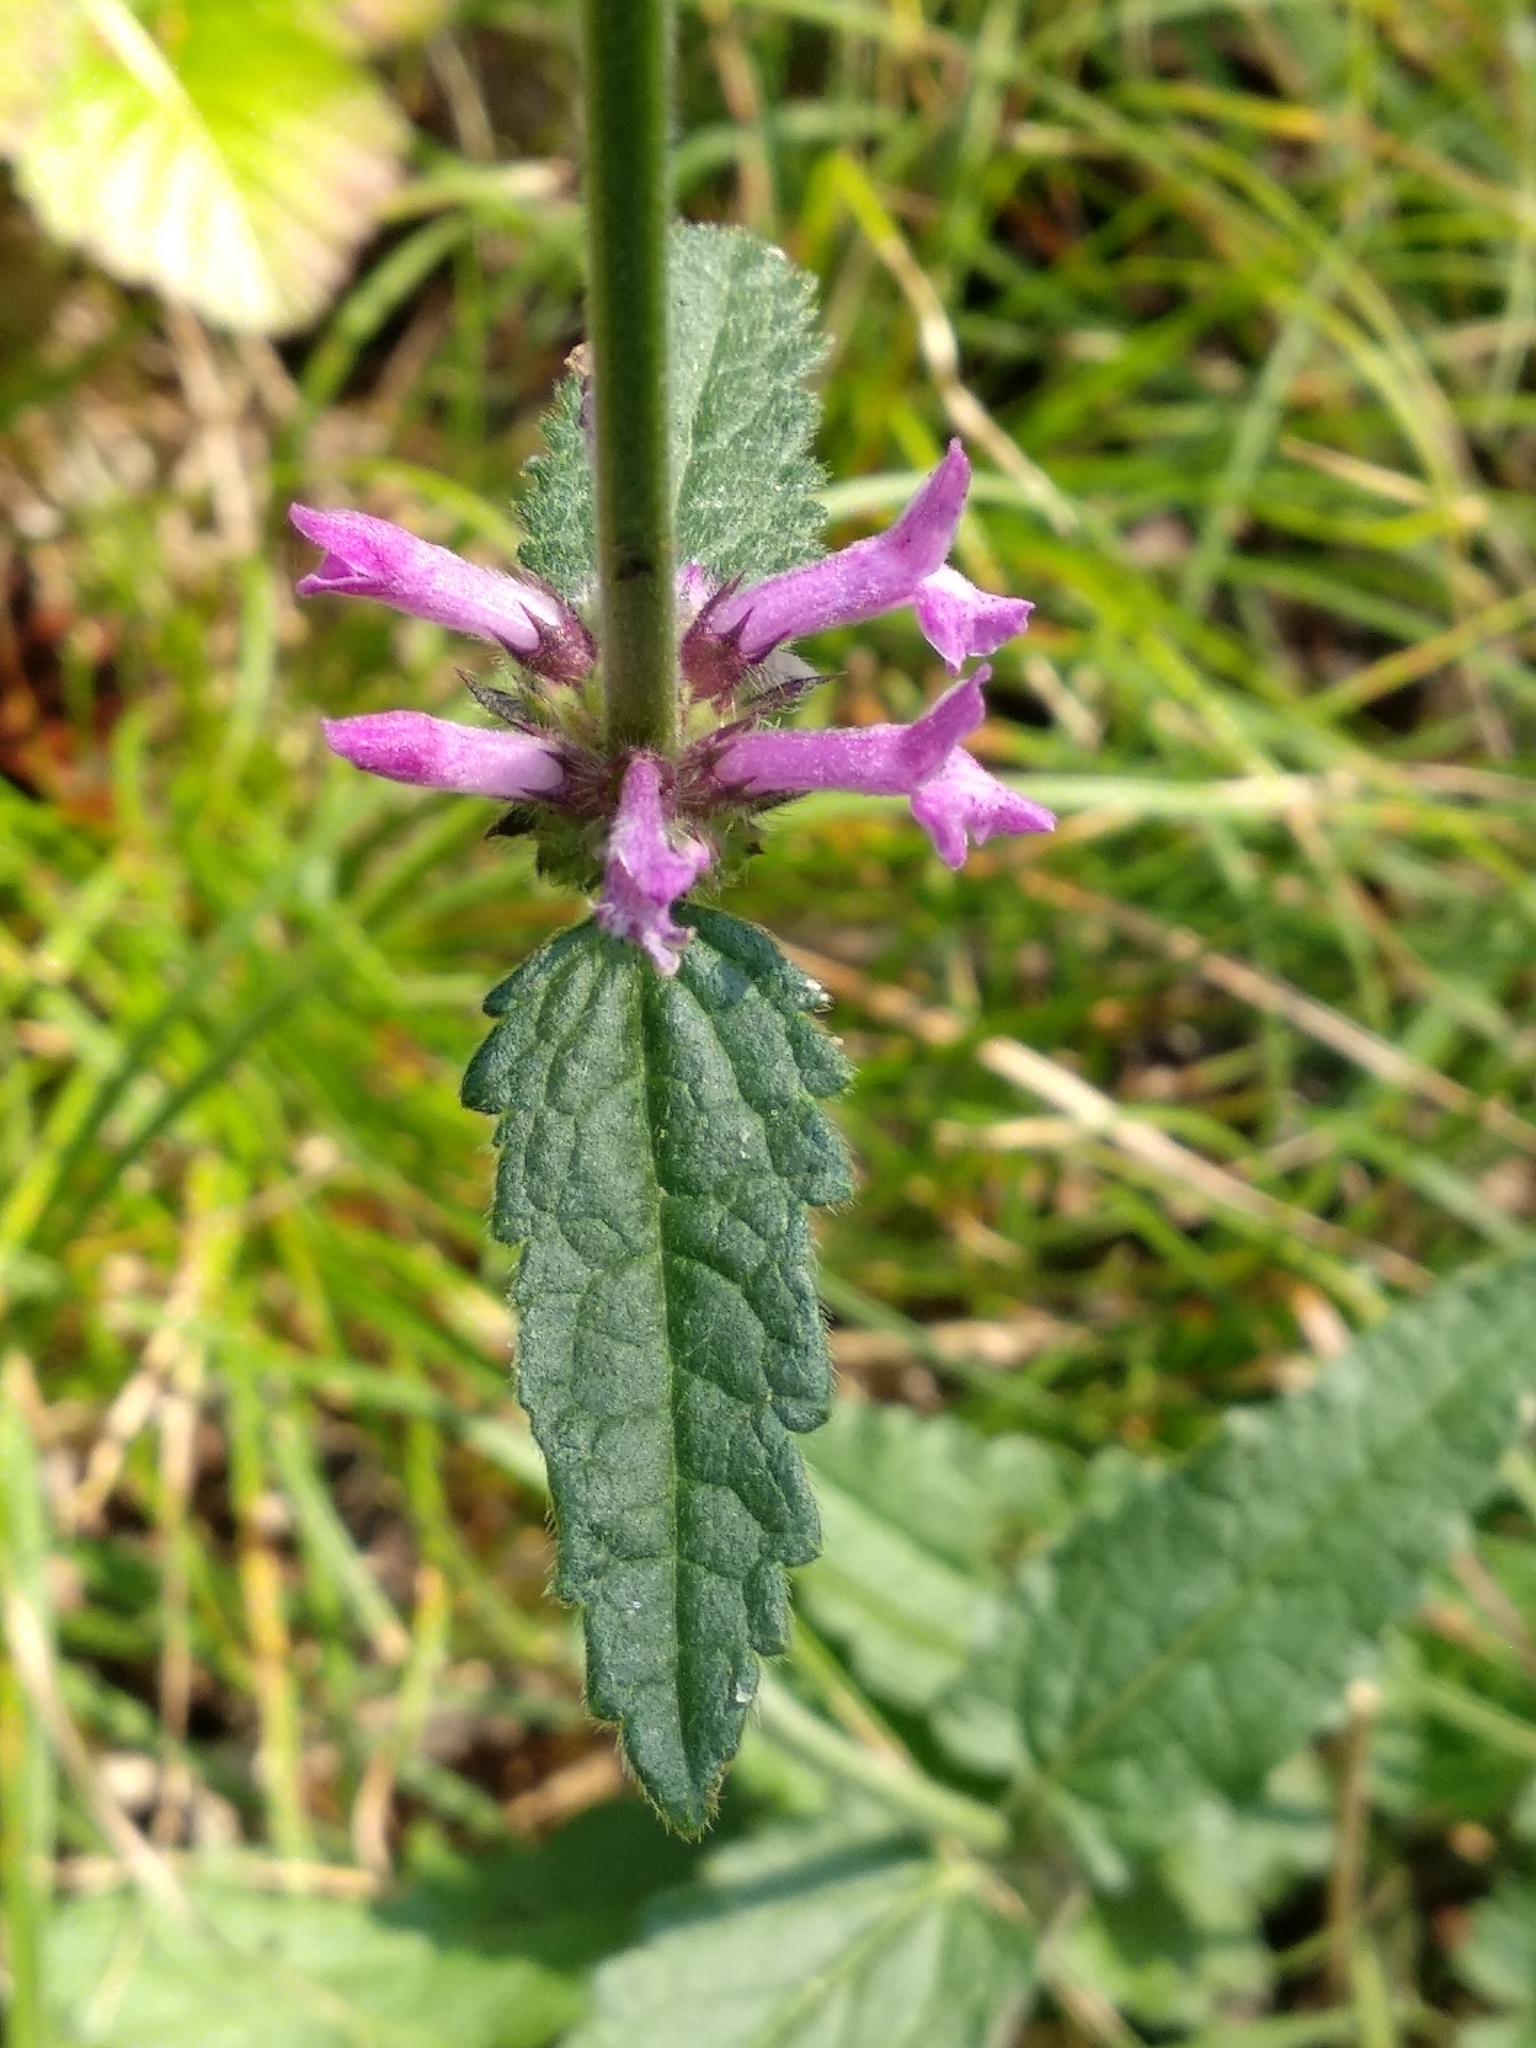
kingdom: Plantae
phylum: Tracheophyta
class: Magnoliopsida
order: Lamiales
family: Lamiaceae
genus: Betonica
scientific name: Betonica officinalis
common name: Bishop's-wort
